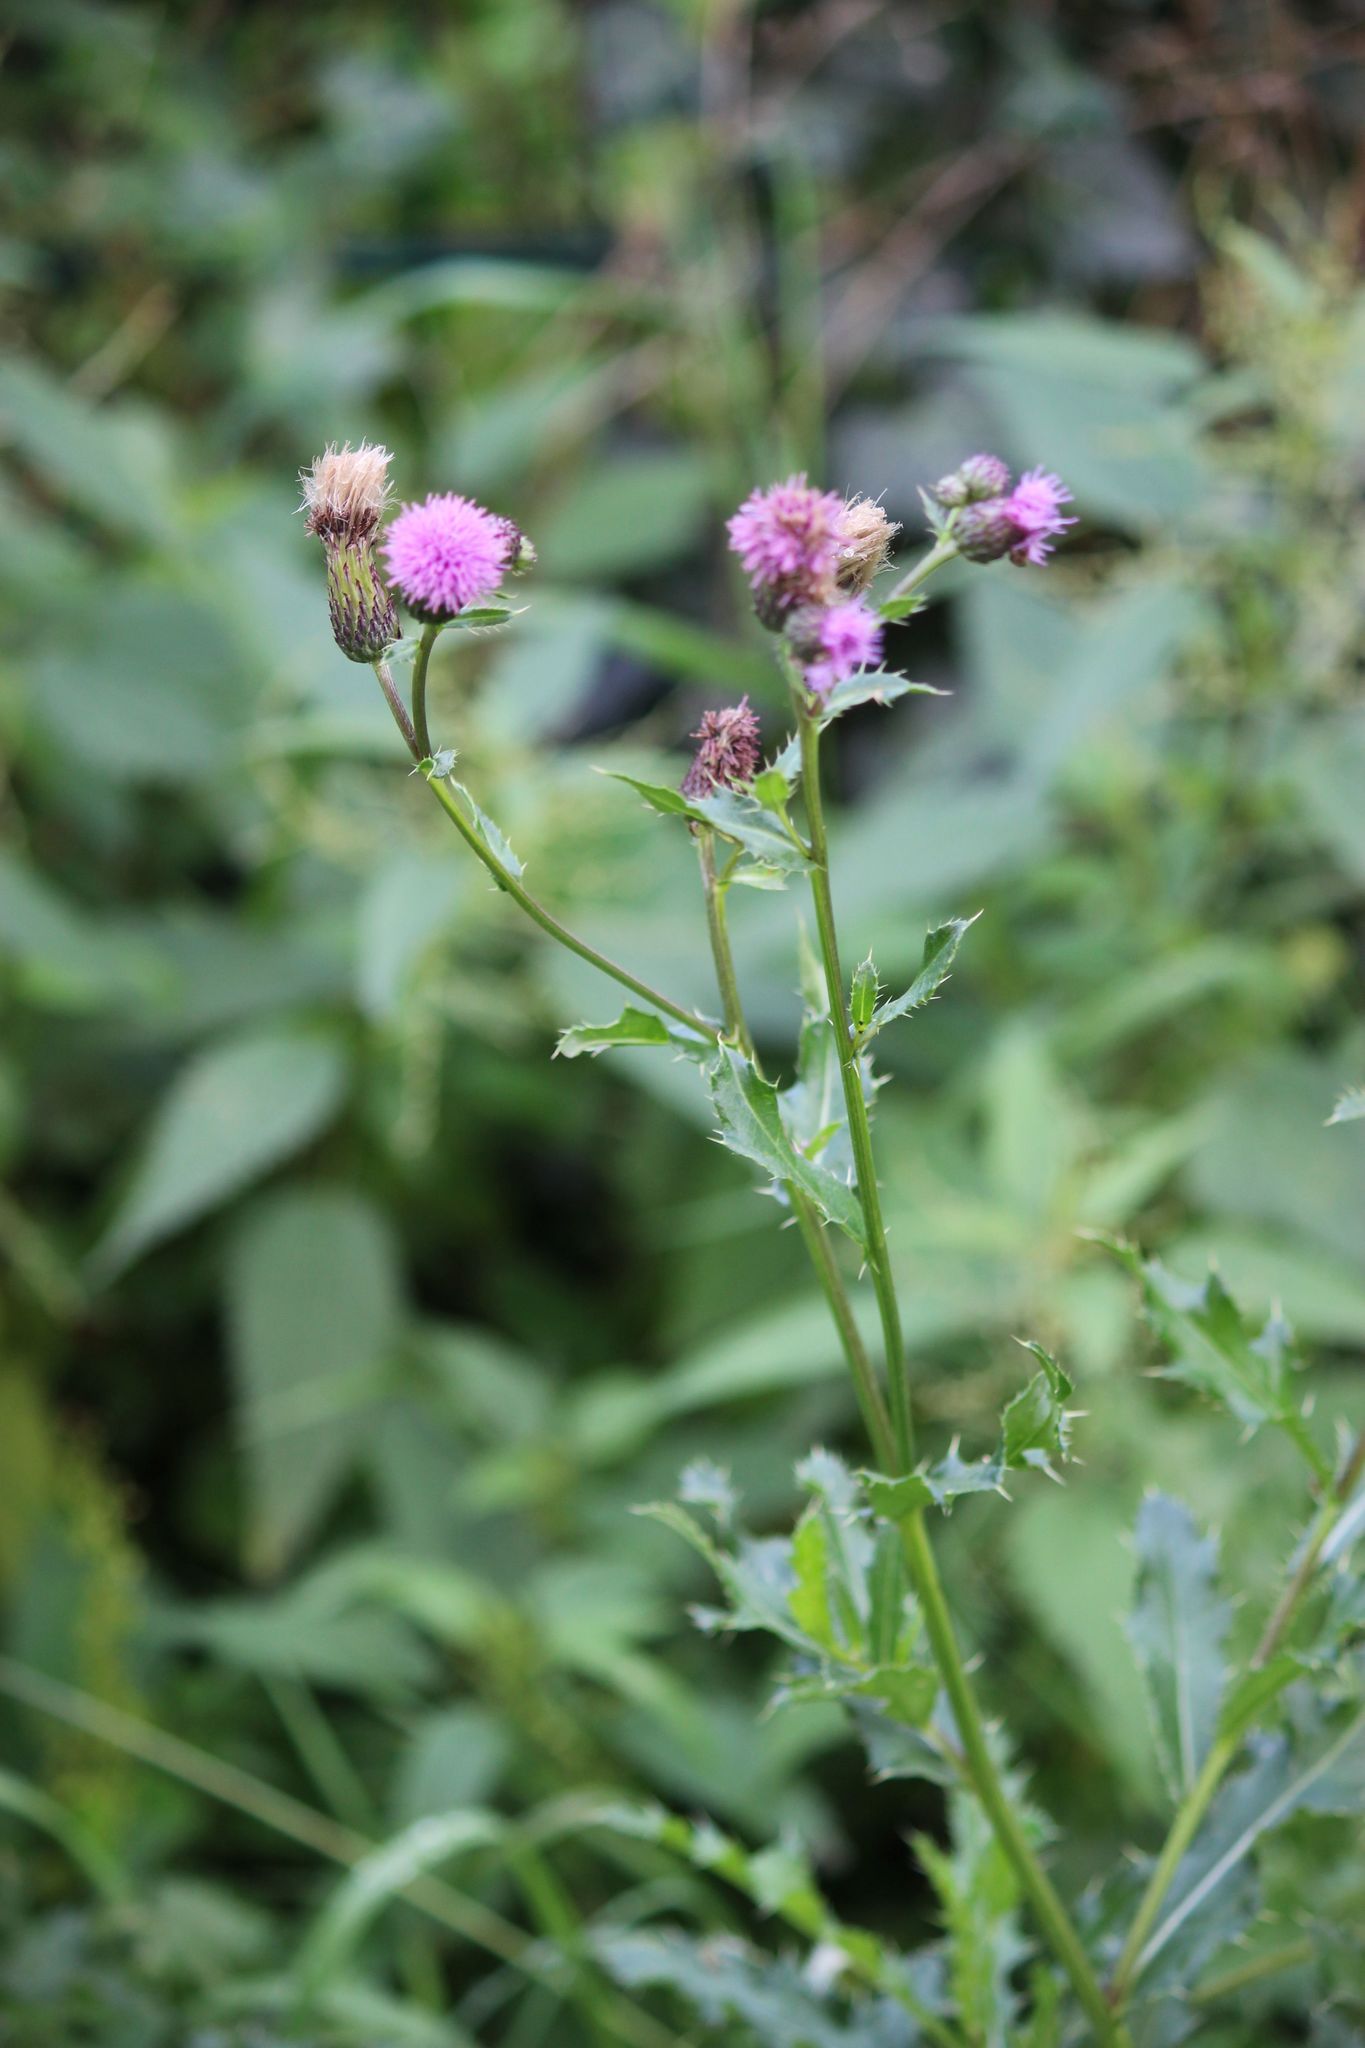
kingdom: Plantae
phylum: Tracheophyta
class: Magnoliopsida
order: Asterales
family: Asteraceae
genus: Cirsium
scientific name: Cirsium arvense
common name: Creeping thistle
